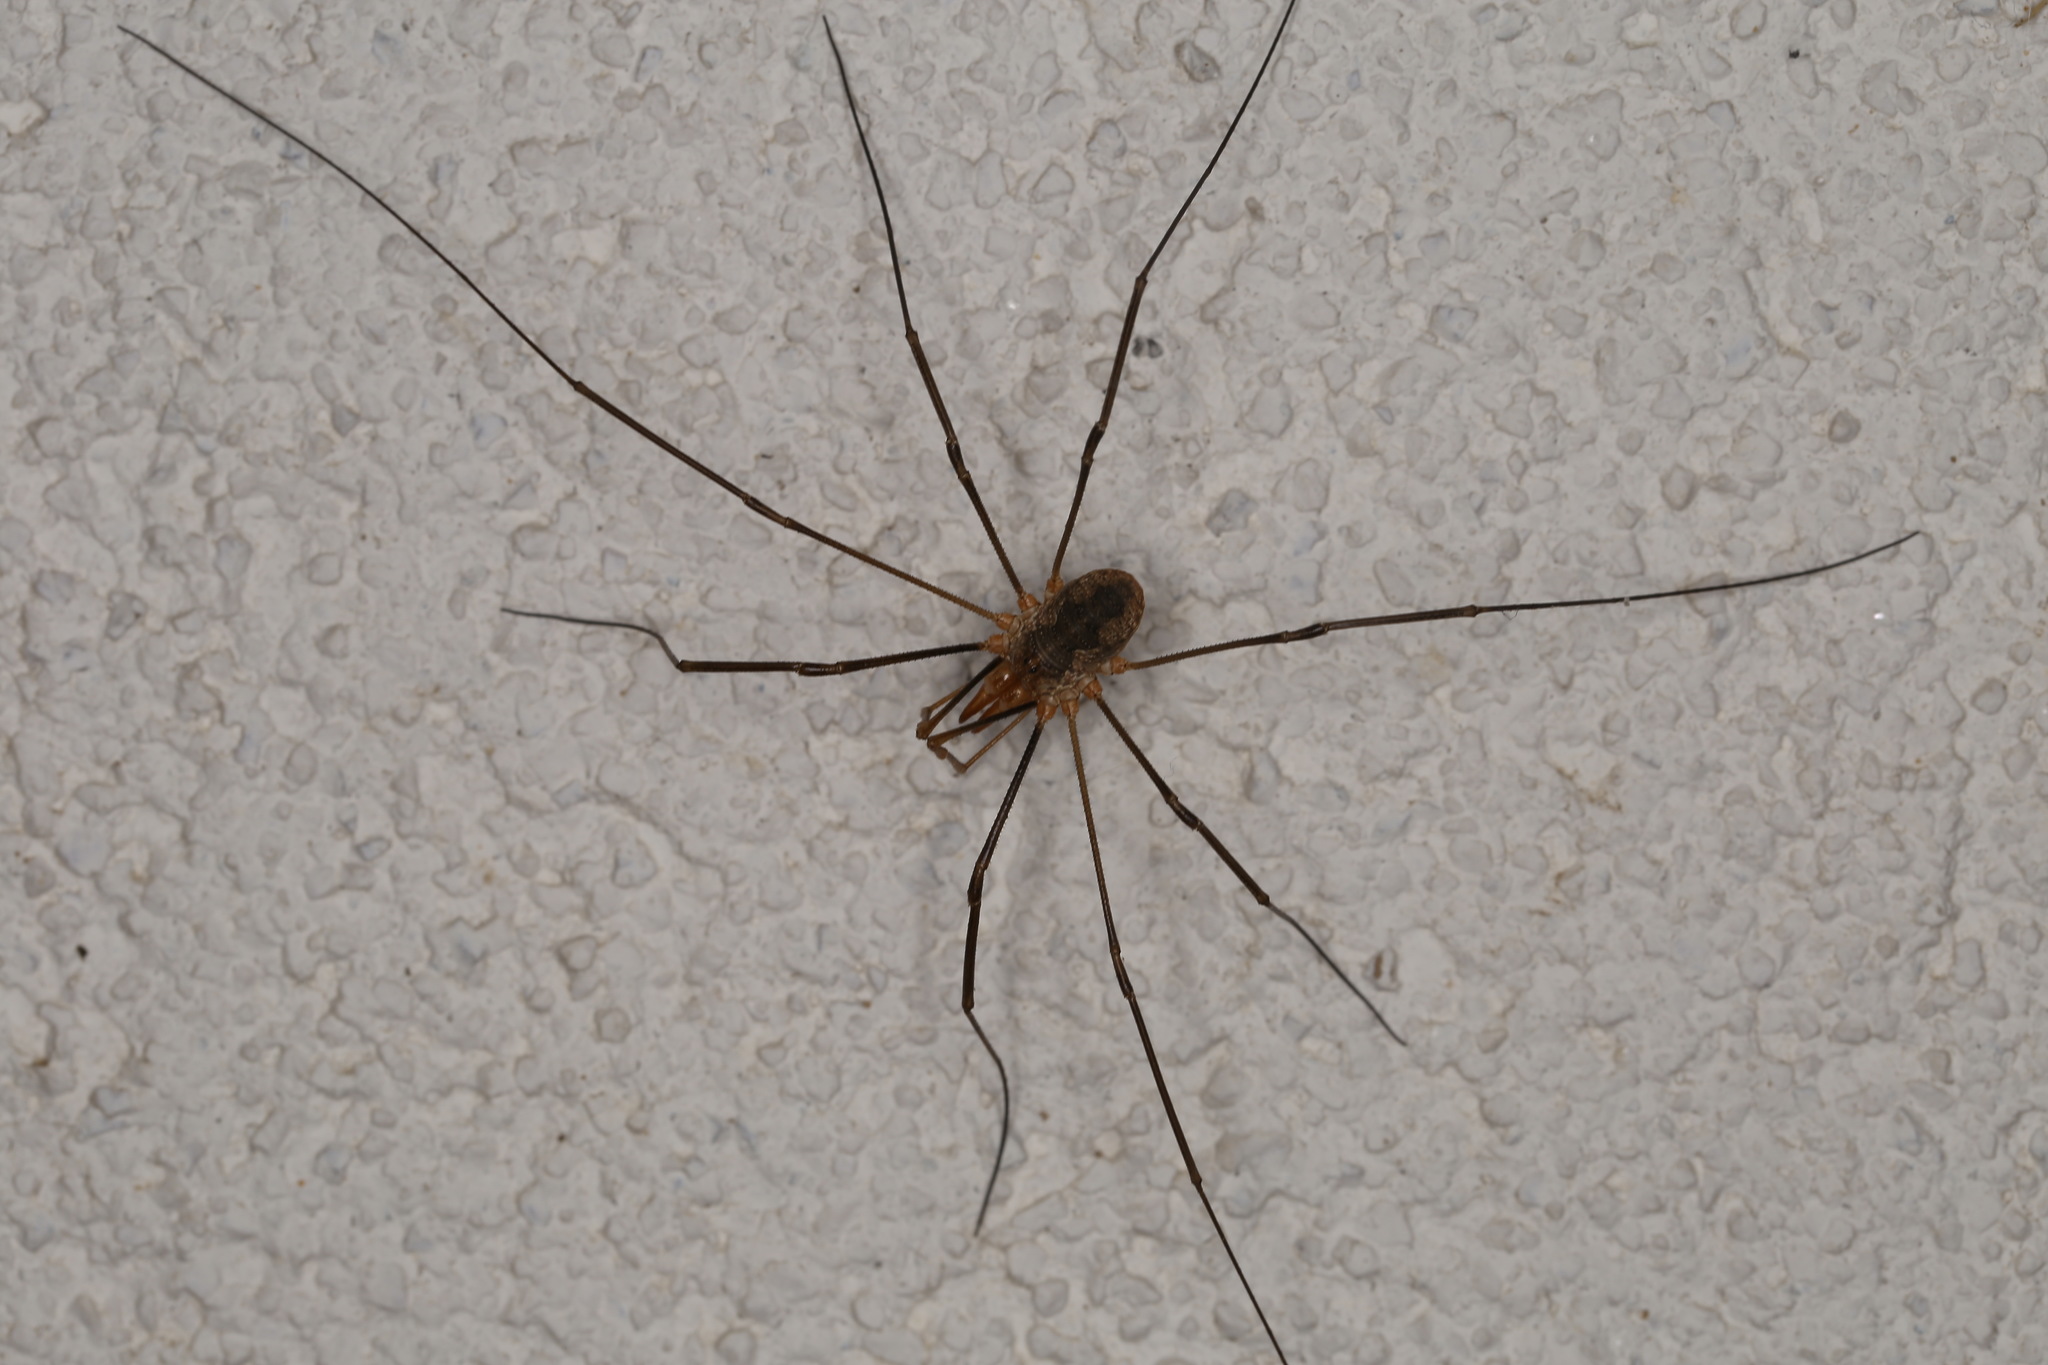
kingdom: Animalia
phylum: Arthropoda
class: Arachnida
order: Opiliones
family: Phalangiidae
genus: Phalangium
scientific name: Phalangium opilio
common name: Daddy longleg
